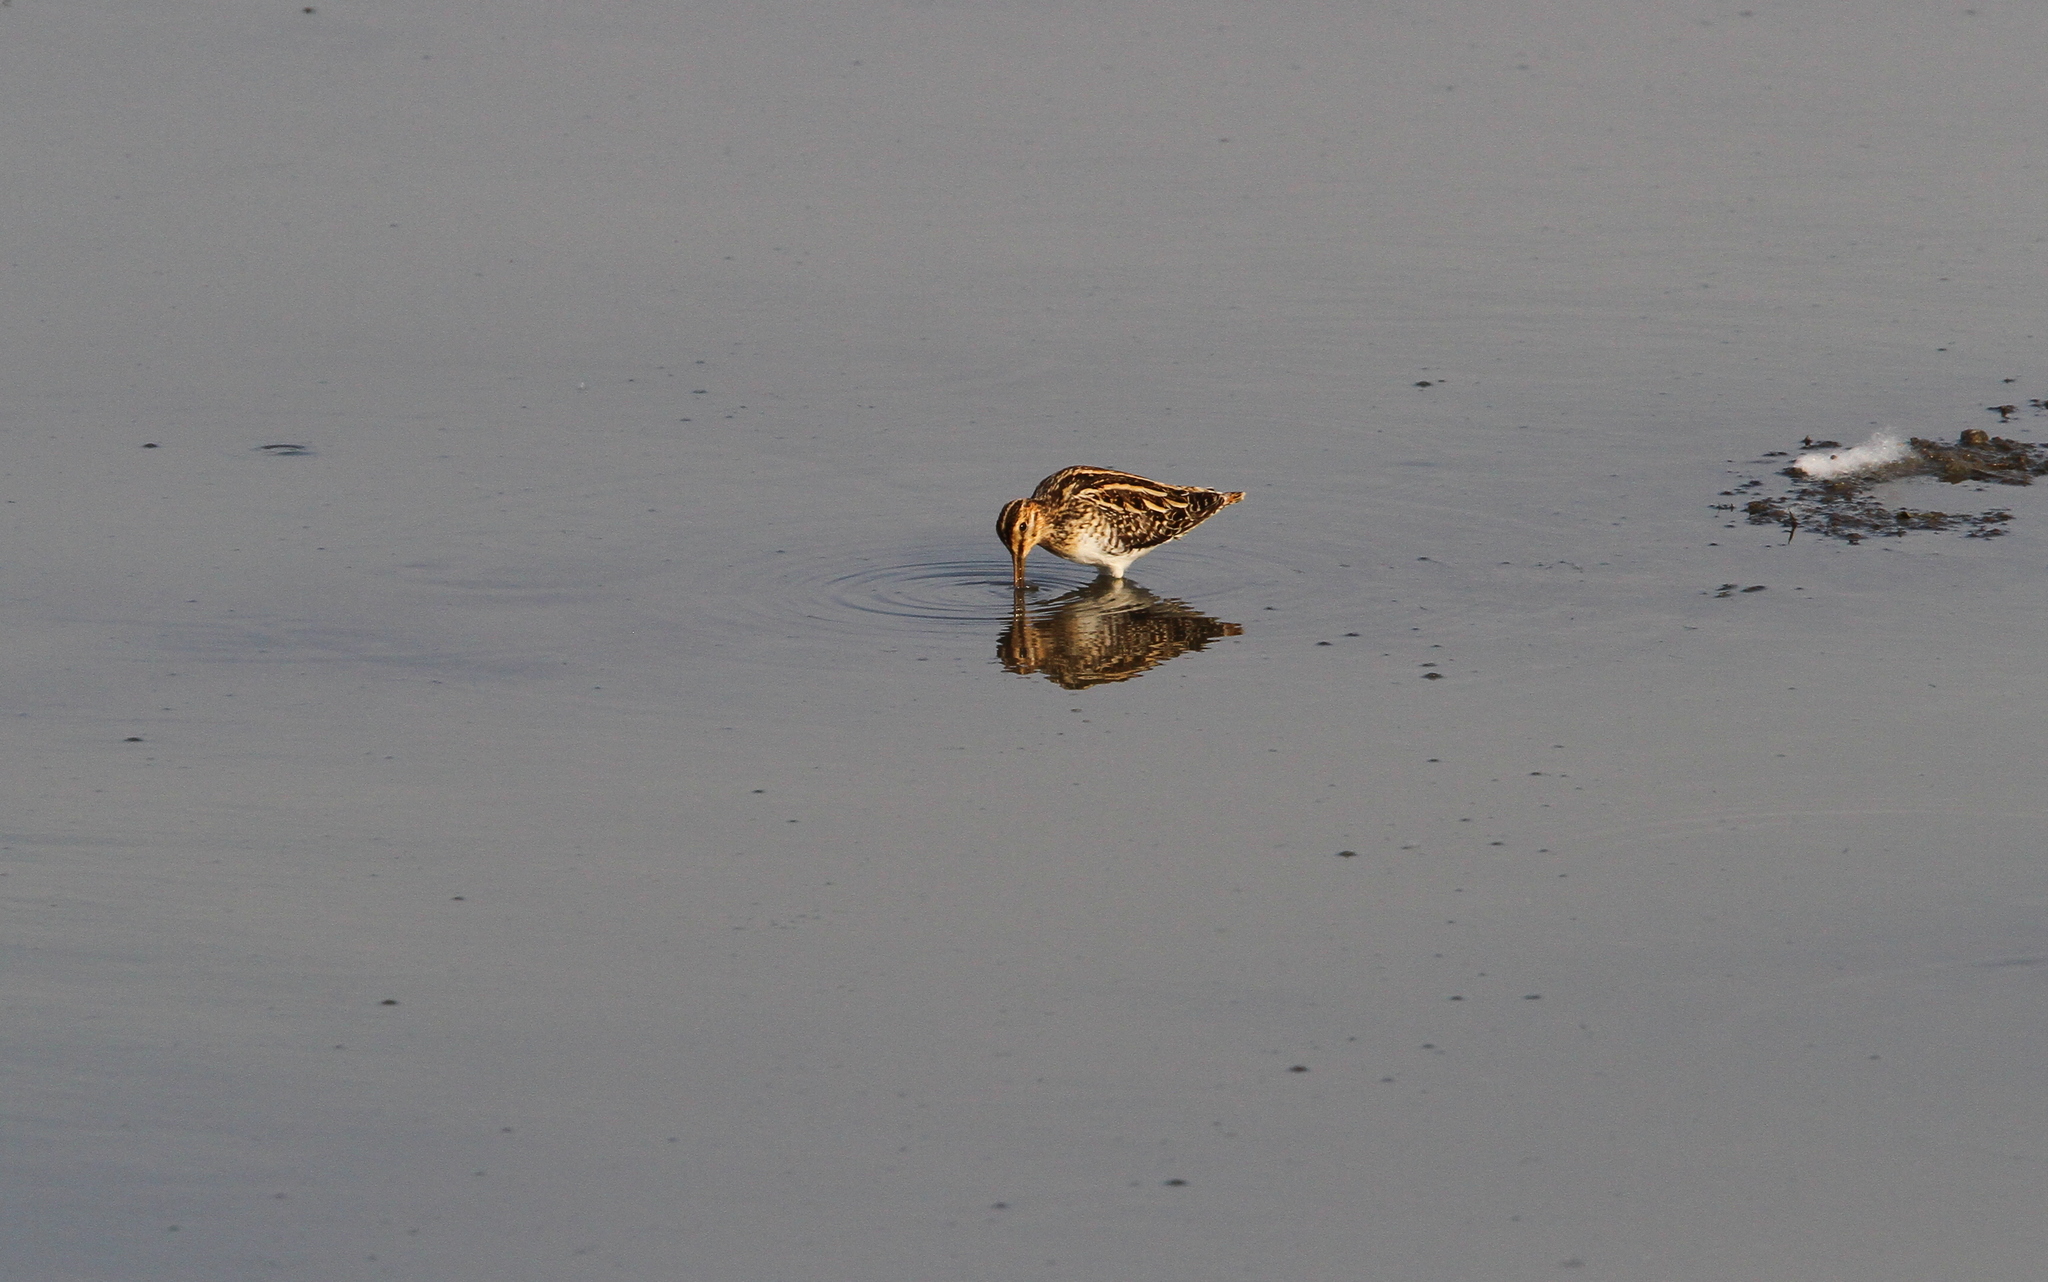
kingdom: Animalia
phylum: Chordata
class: Aves
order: Charadriiformes
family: Scolopacidae
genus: Gallinago
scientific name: Gallinago gallinago
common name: Common snipe
